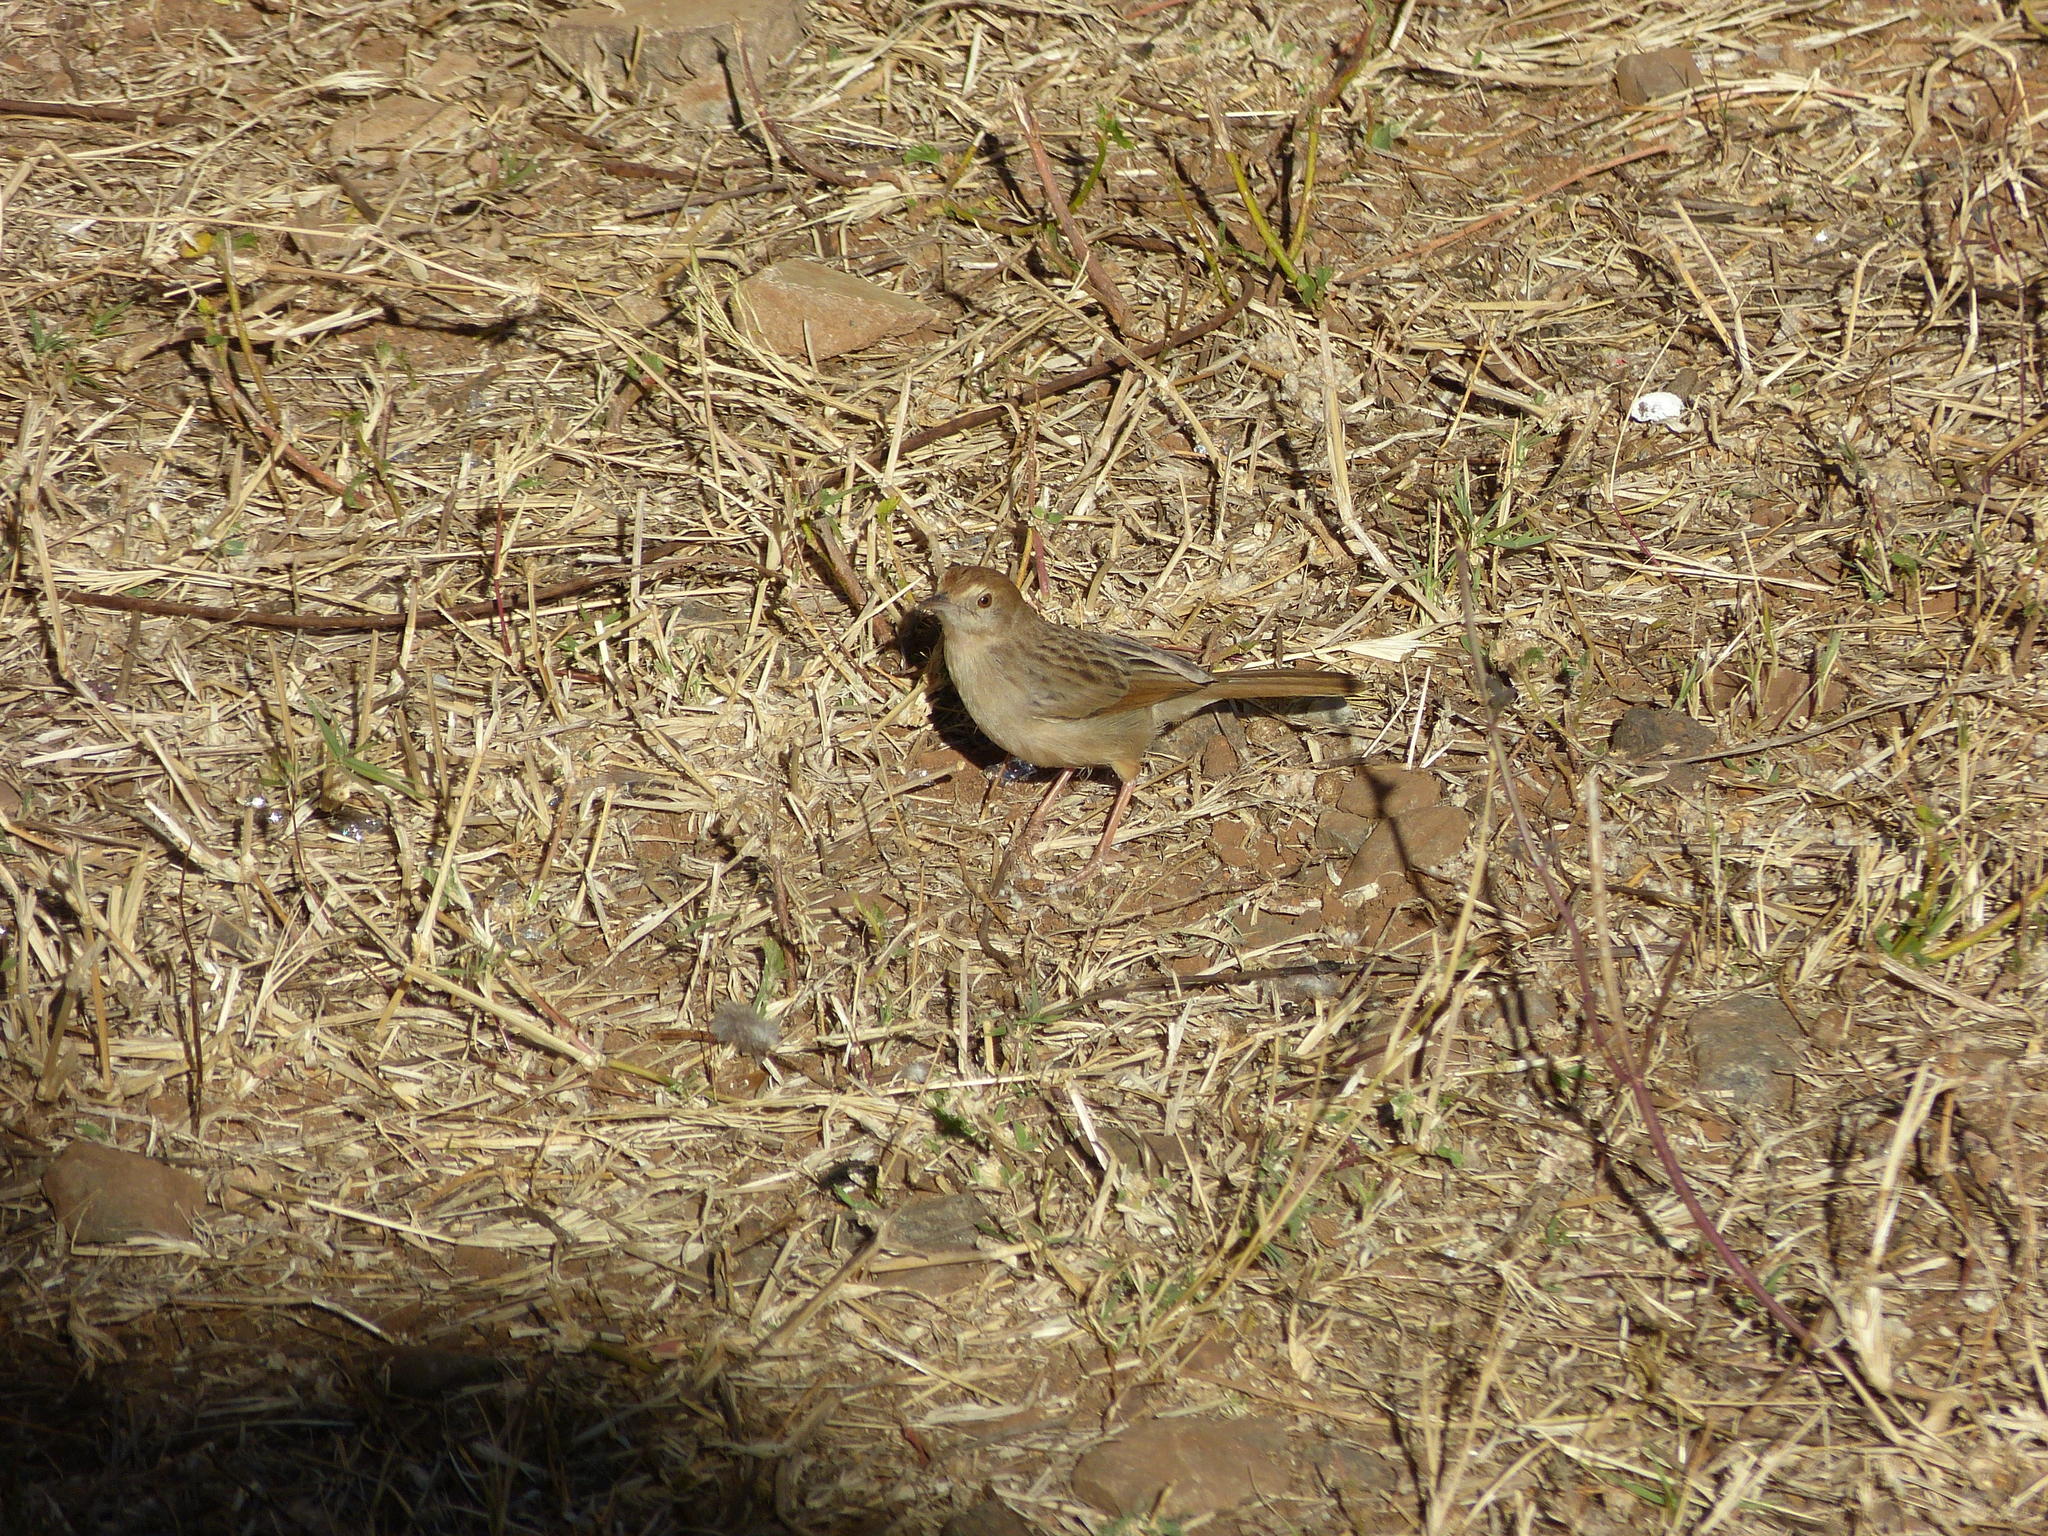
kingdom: Animalia
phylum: Chordata
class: Aves
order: Passeriformes
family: Cisticolidae
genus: Cisticola
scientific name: Cisticola chiniana
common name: Rattling cisticola
